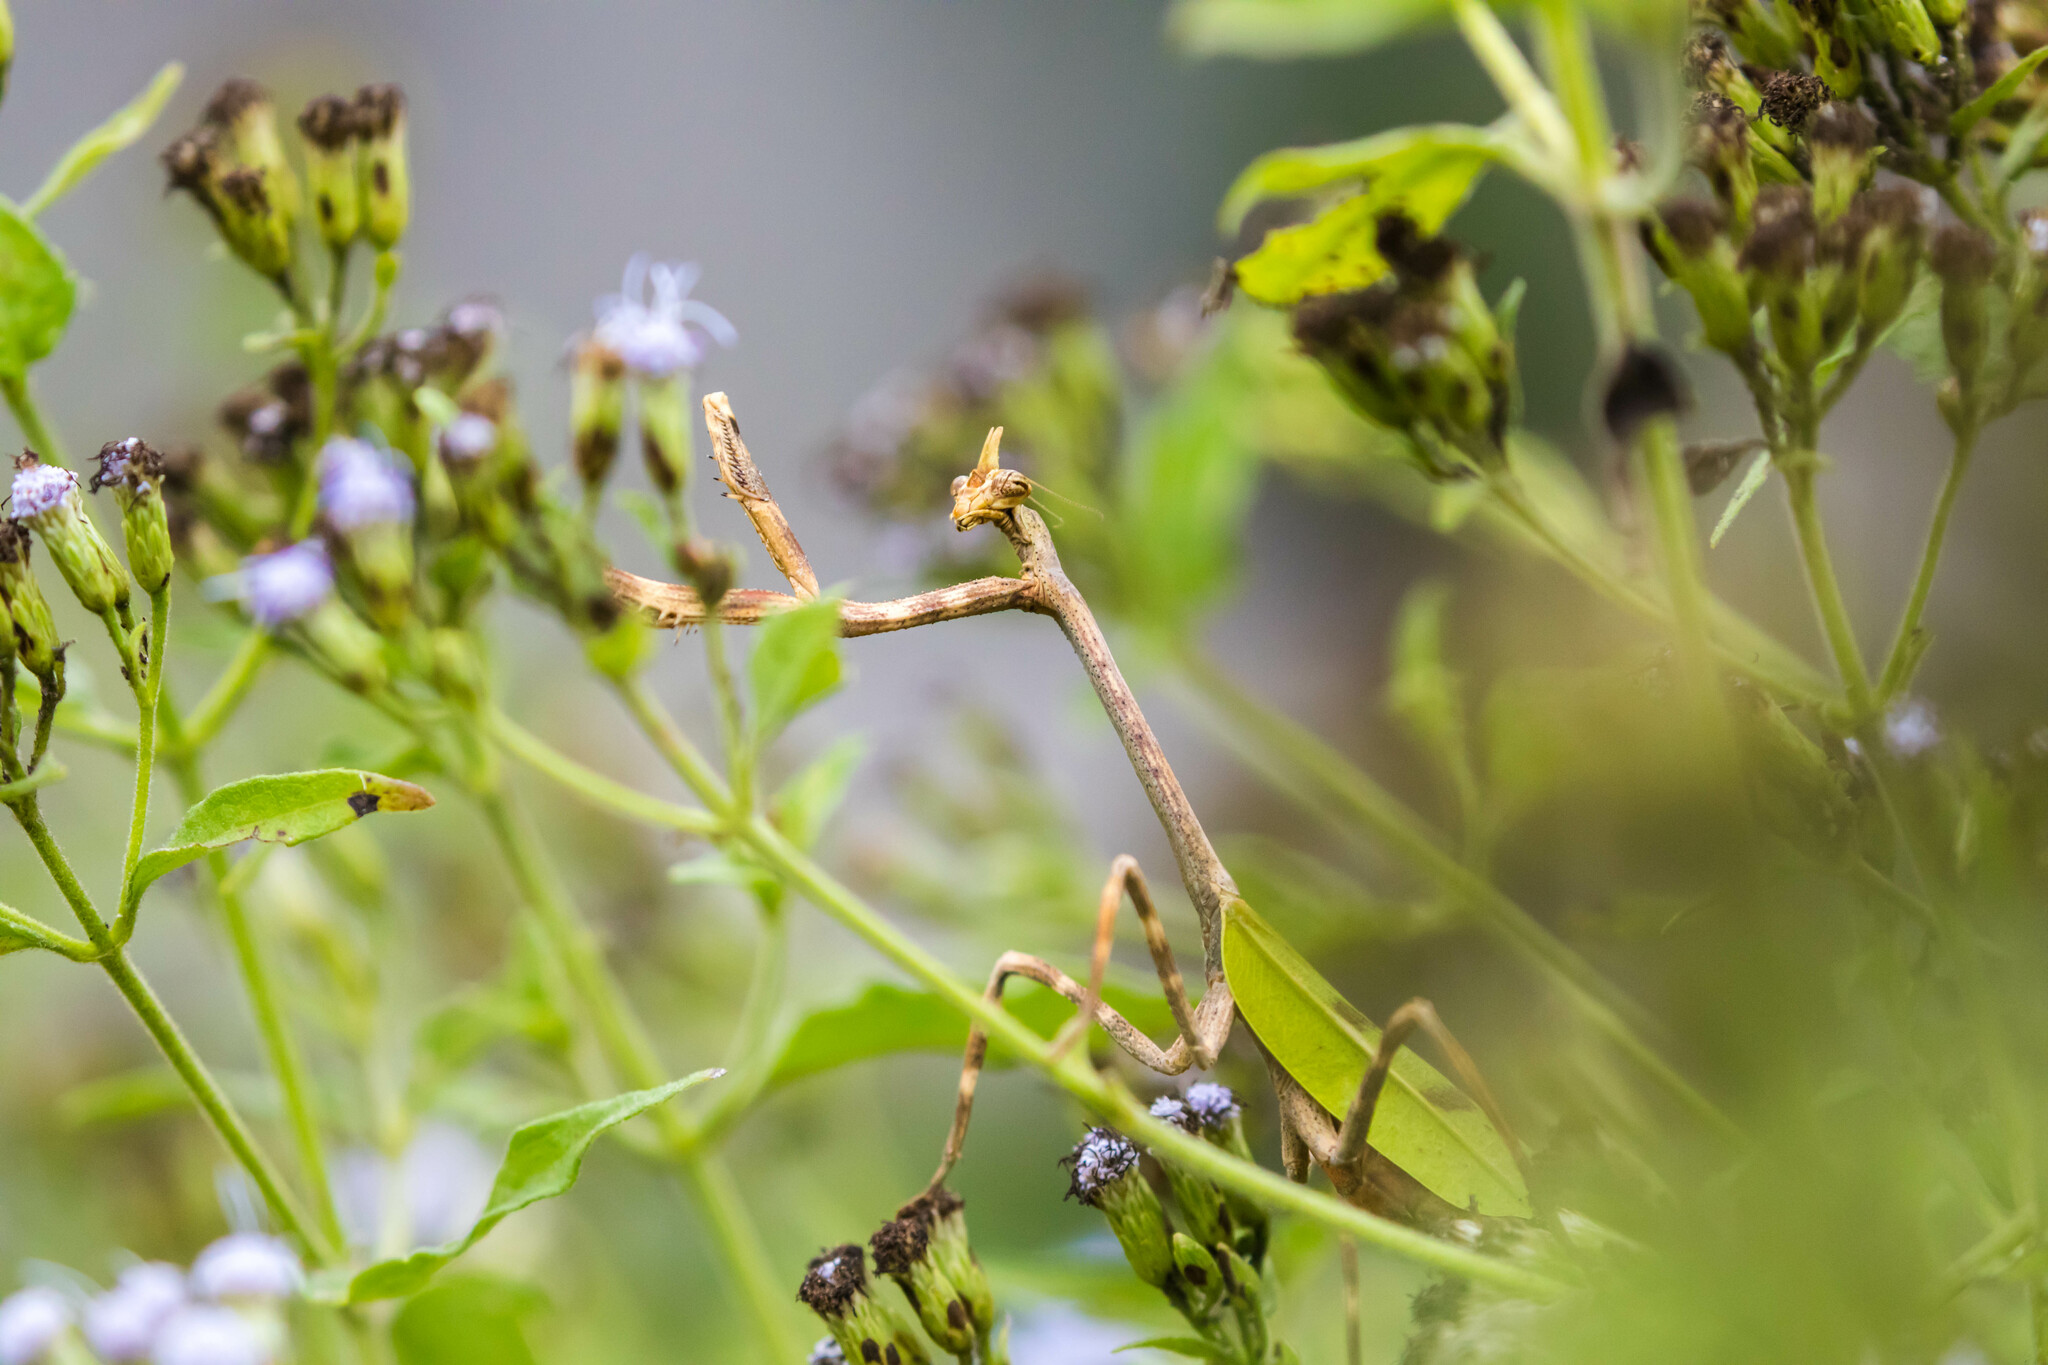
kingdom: Animalia
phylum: Arthropoda
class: Insecta
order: Mantodea
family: Mantidae
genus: Pseudovates
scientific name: Pseudovates chlorophaea
